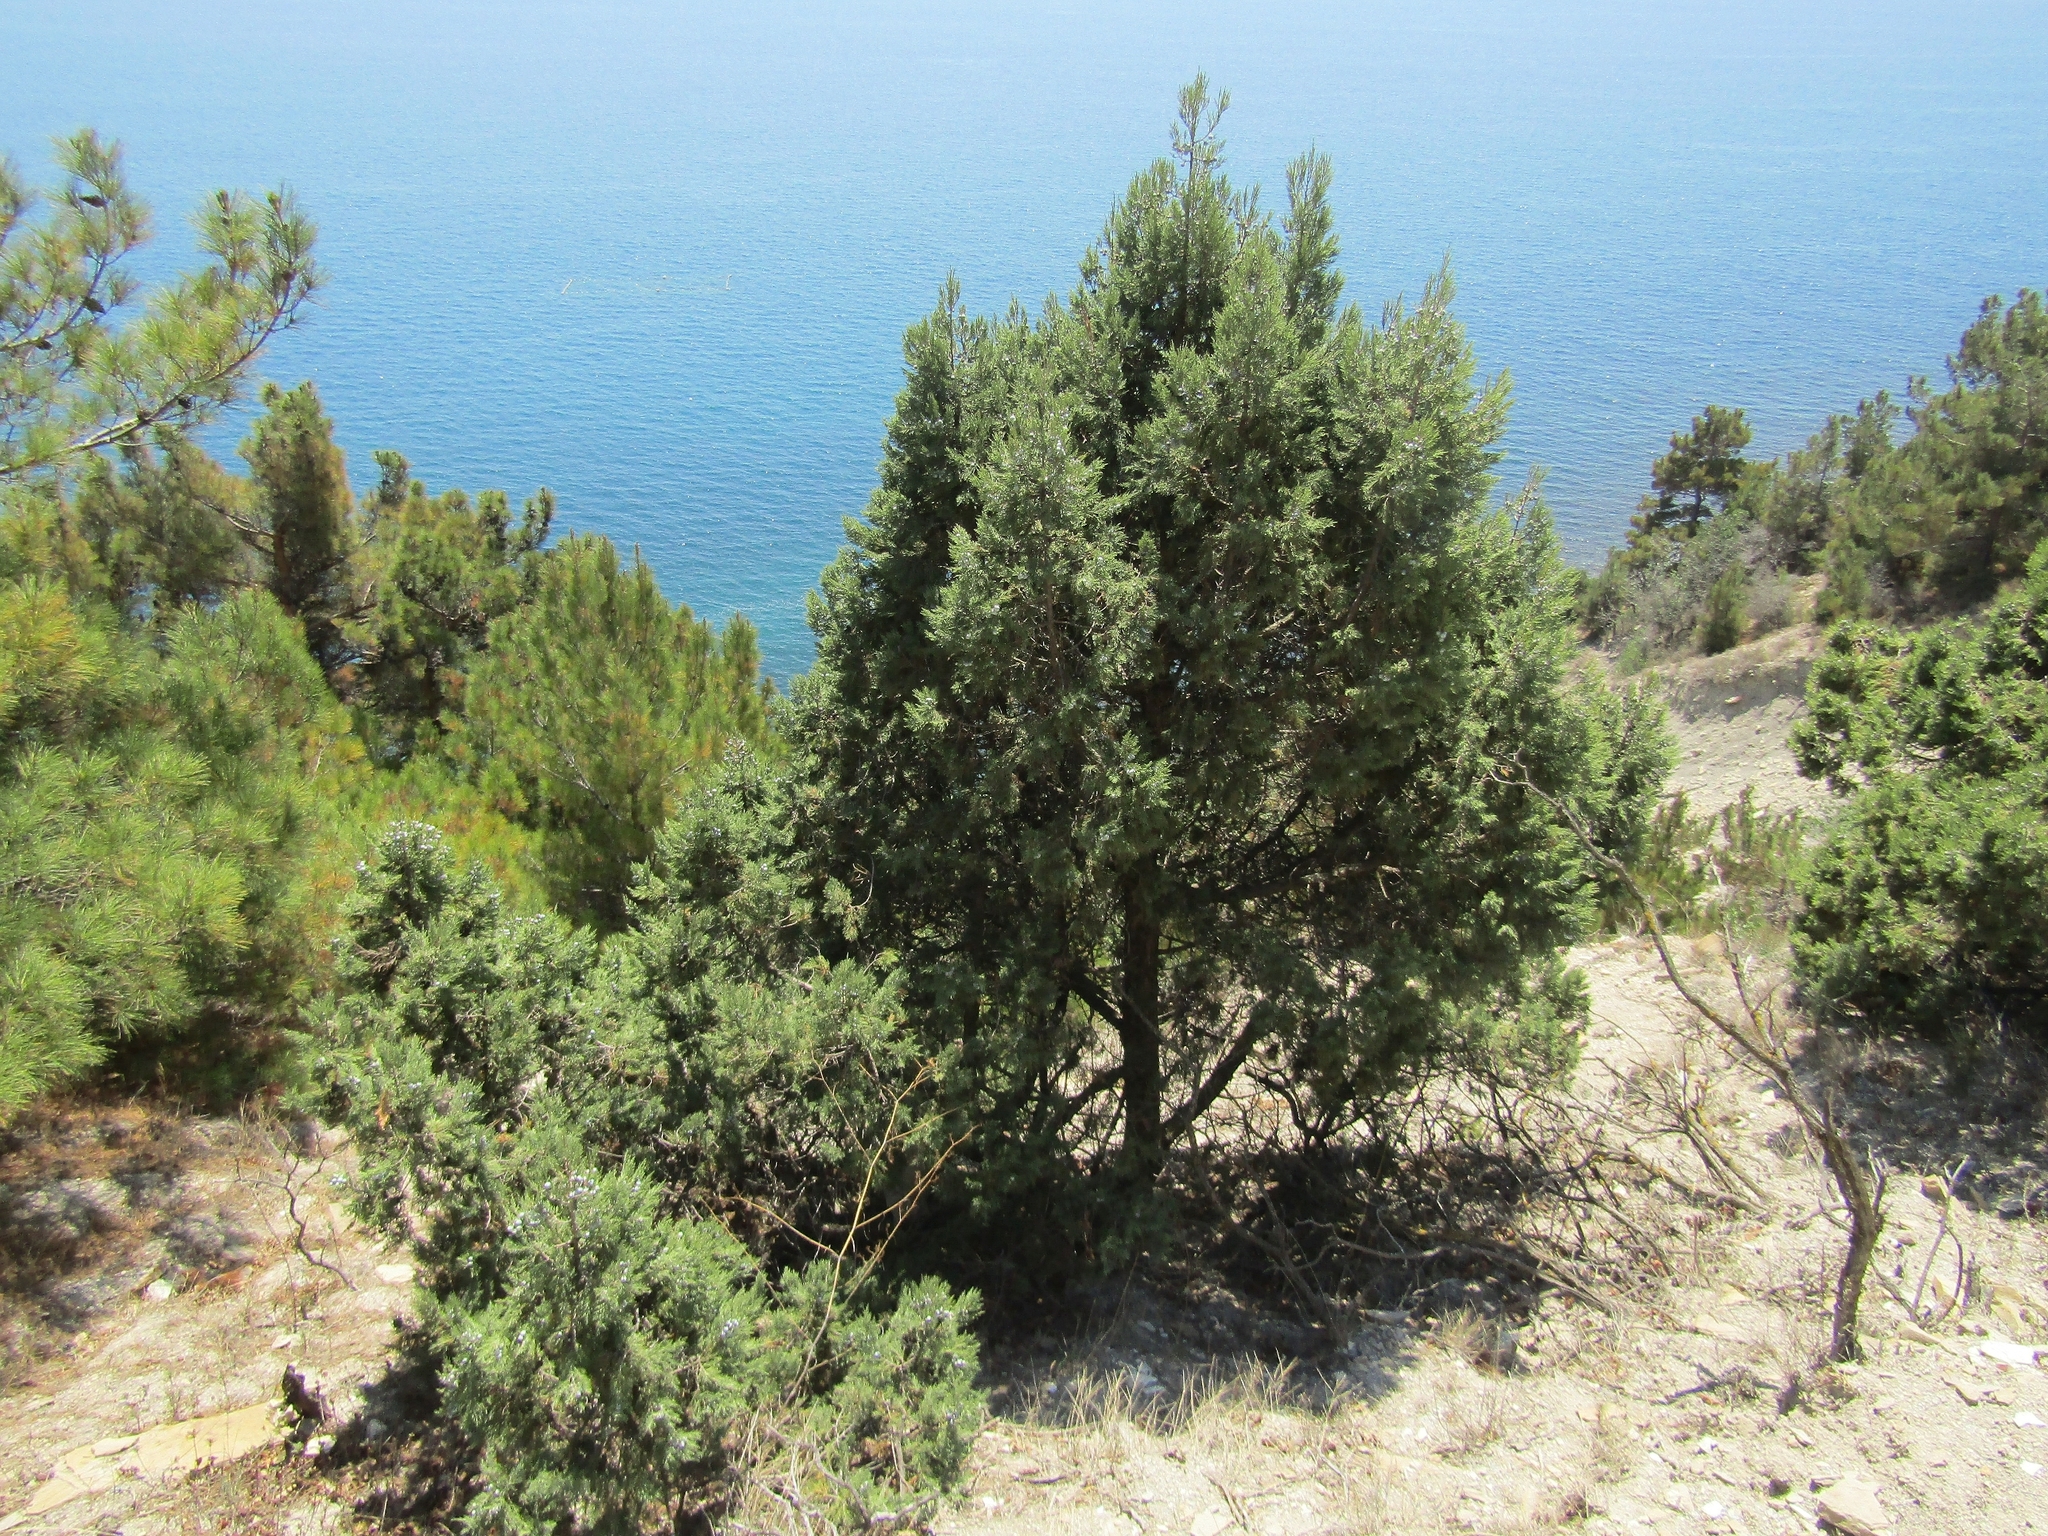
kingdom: Plantae
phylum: Tracheophyta
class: Pinopsida
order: Pinales
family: Cupressaceae
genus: Juniperus
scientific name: Juniperus excelsa
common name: Crimean juniper
